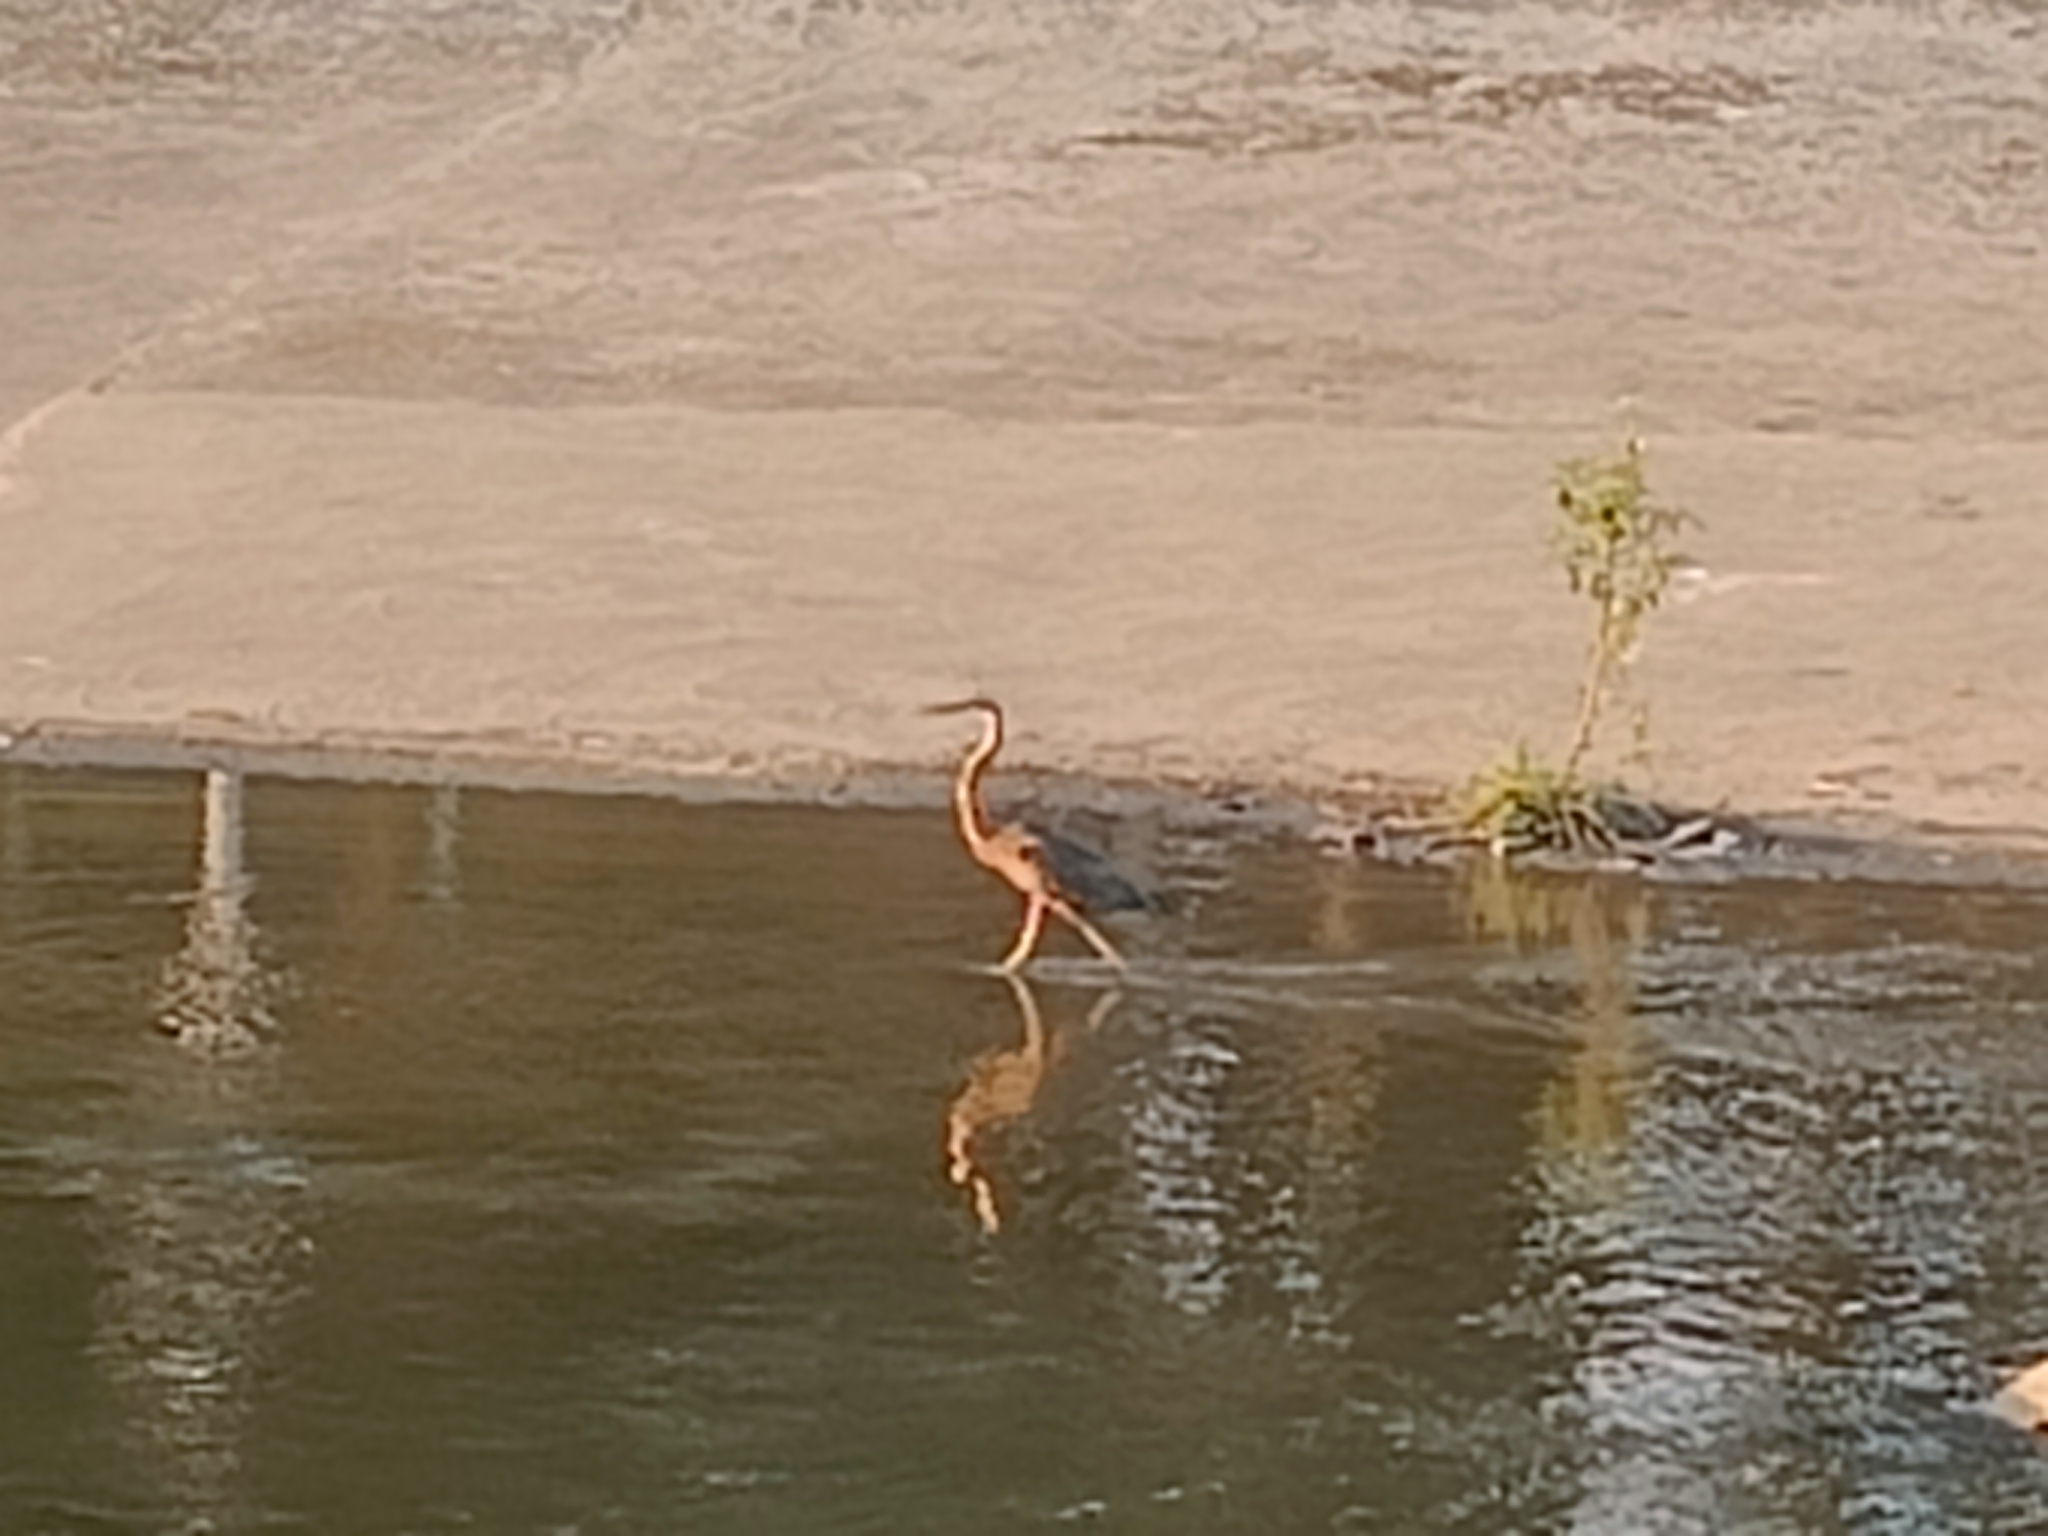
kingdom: Animalia
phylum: Chordata
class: Aves
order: Pelecaniformes
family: Ardeidae
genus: Ardea
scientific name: Ardea purpurea
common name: Purple heron
